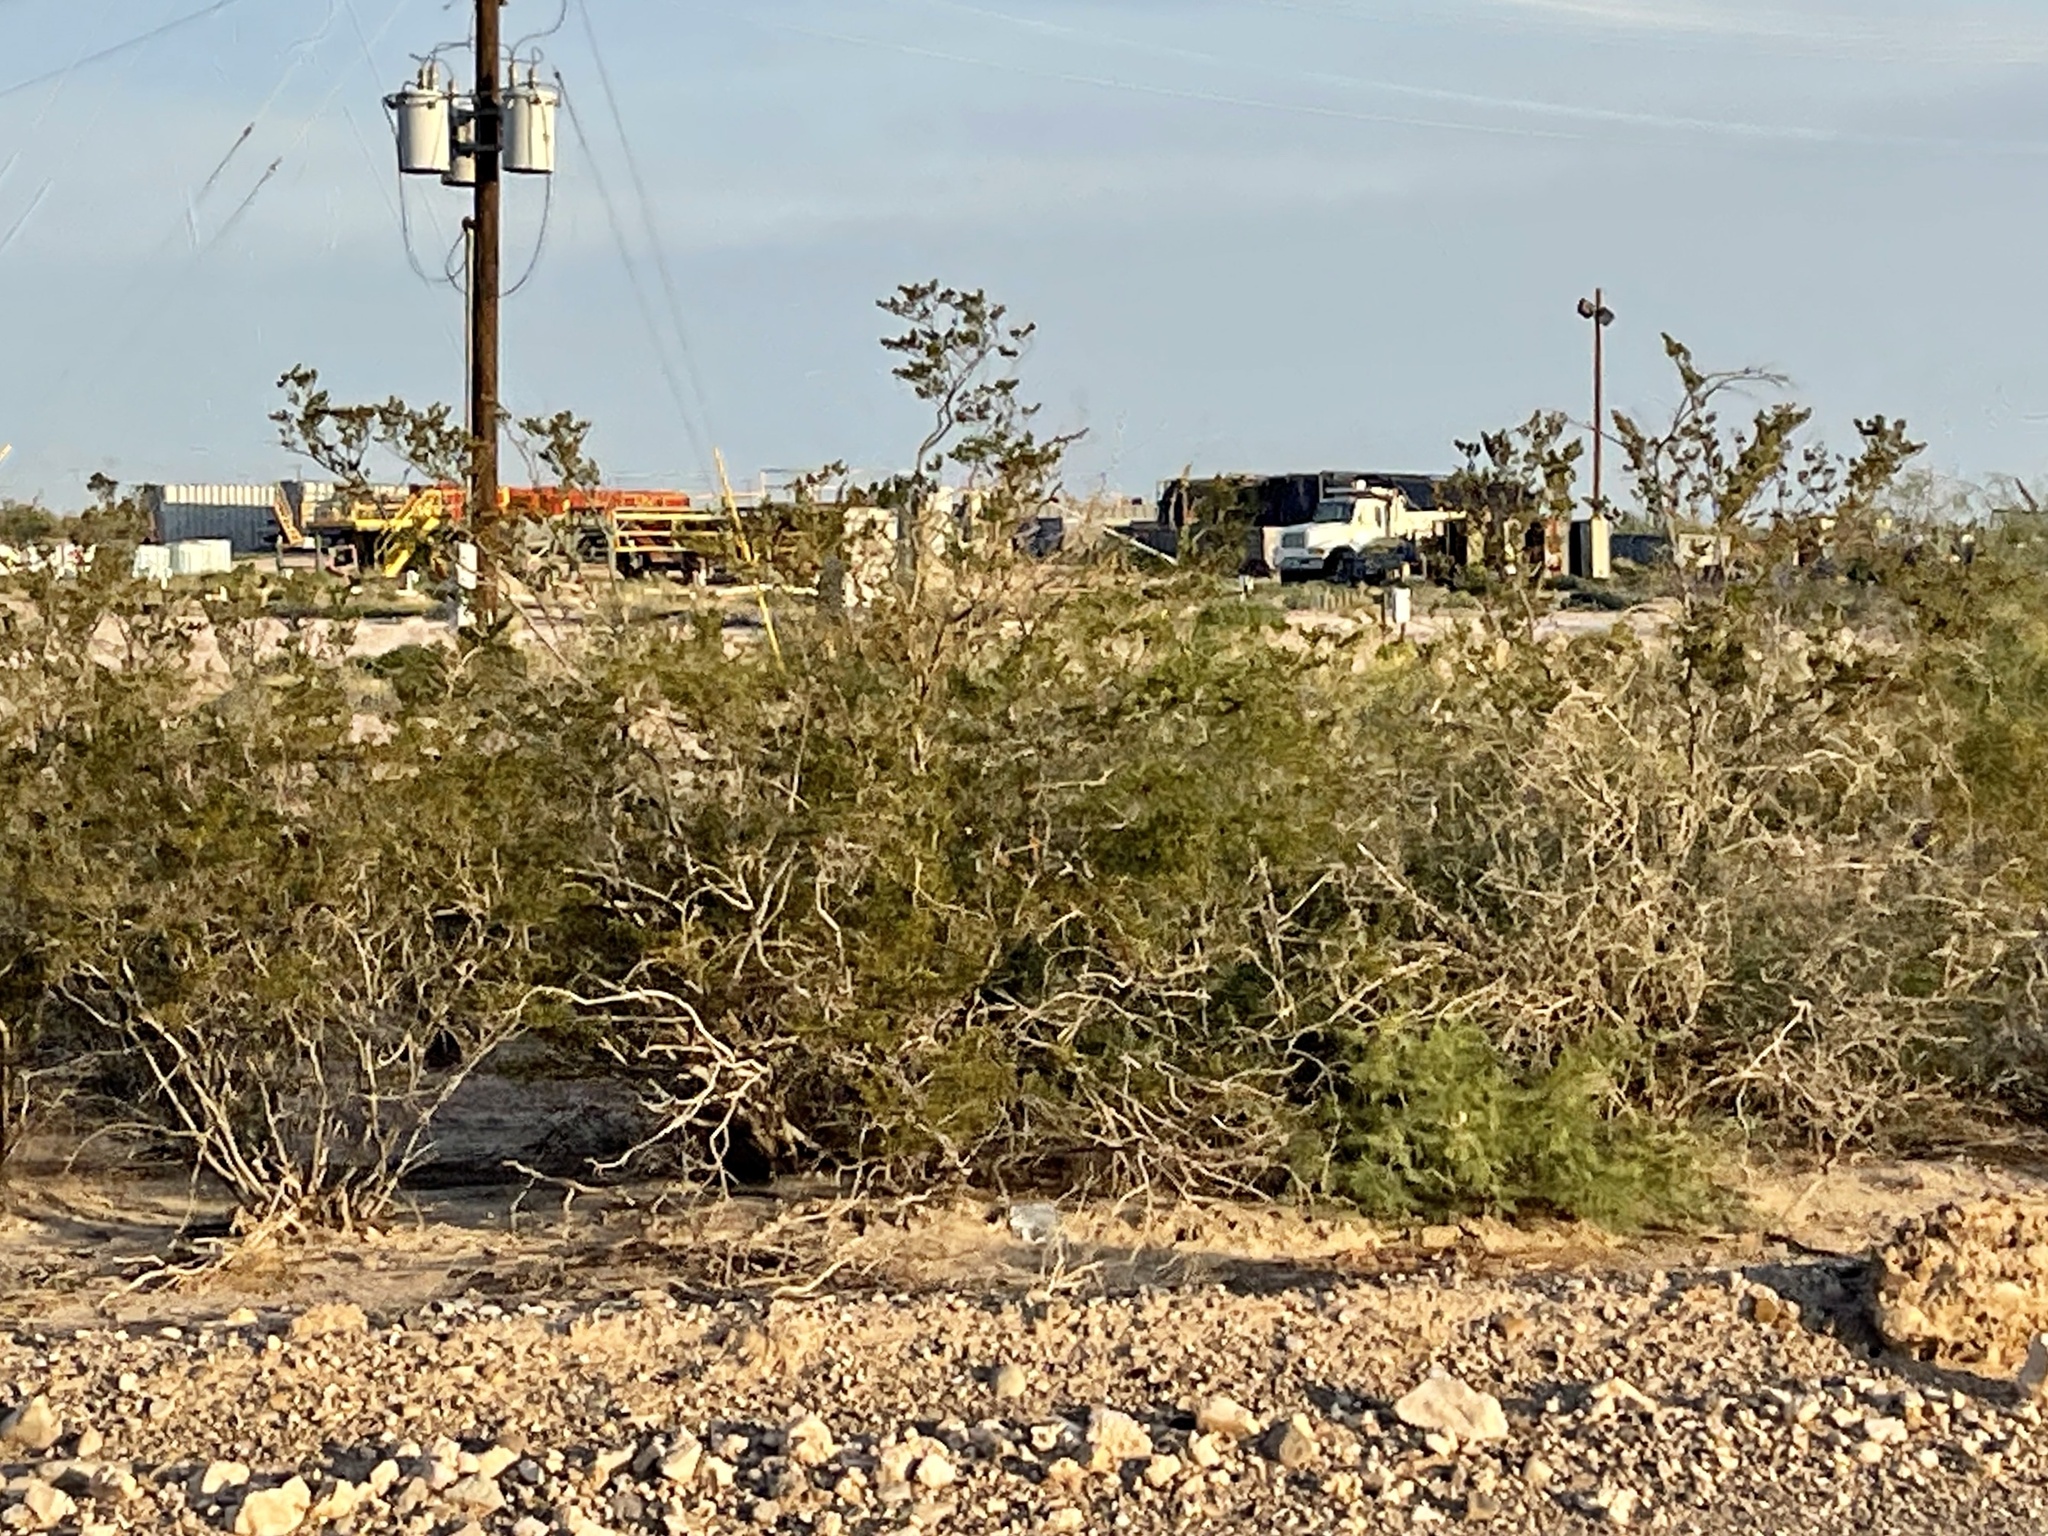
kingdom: Plantae
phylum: Tracheophyta
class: Magnoliopsida
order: Zygophyllales
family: Zygophyllaceae
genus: Larrea
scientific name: Larrea tridentata
